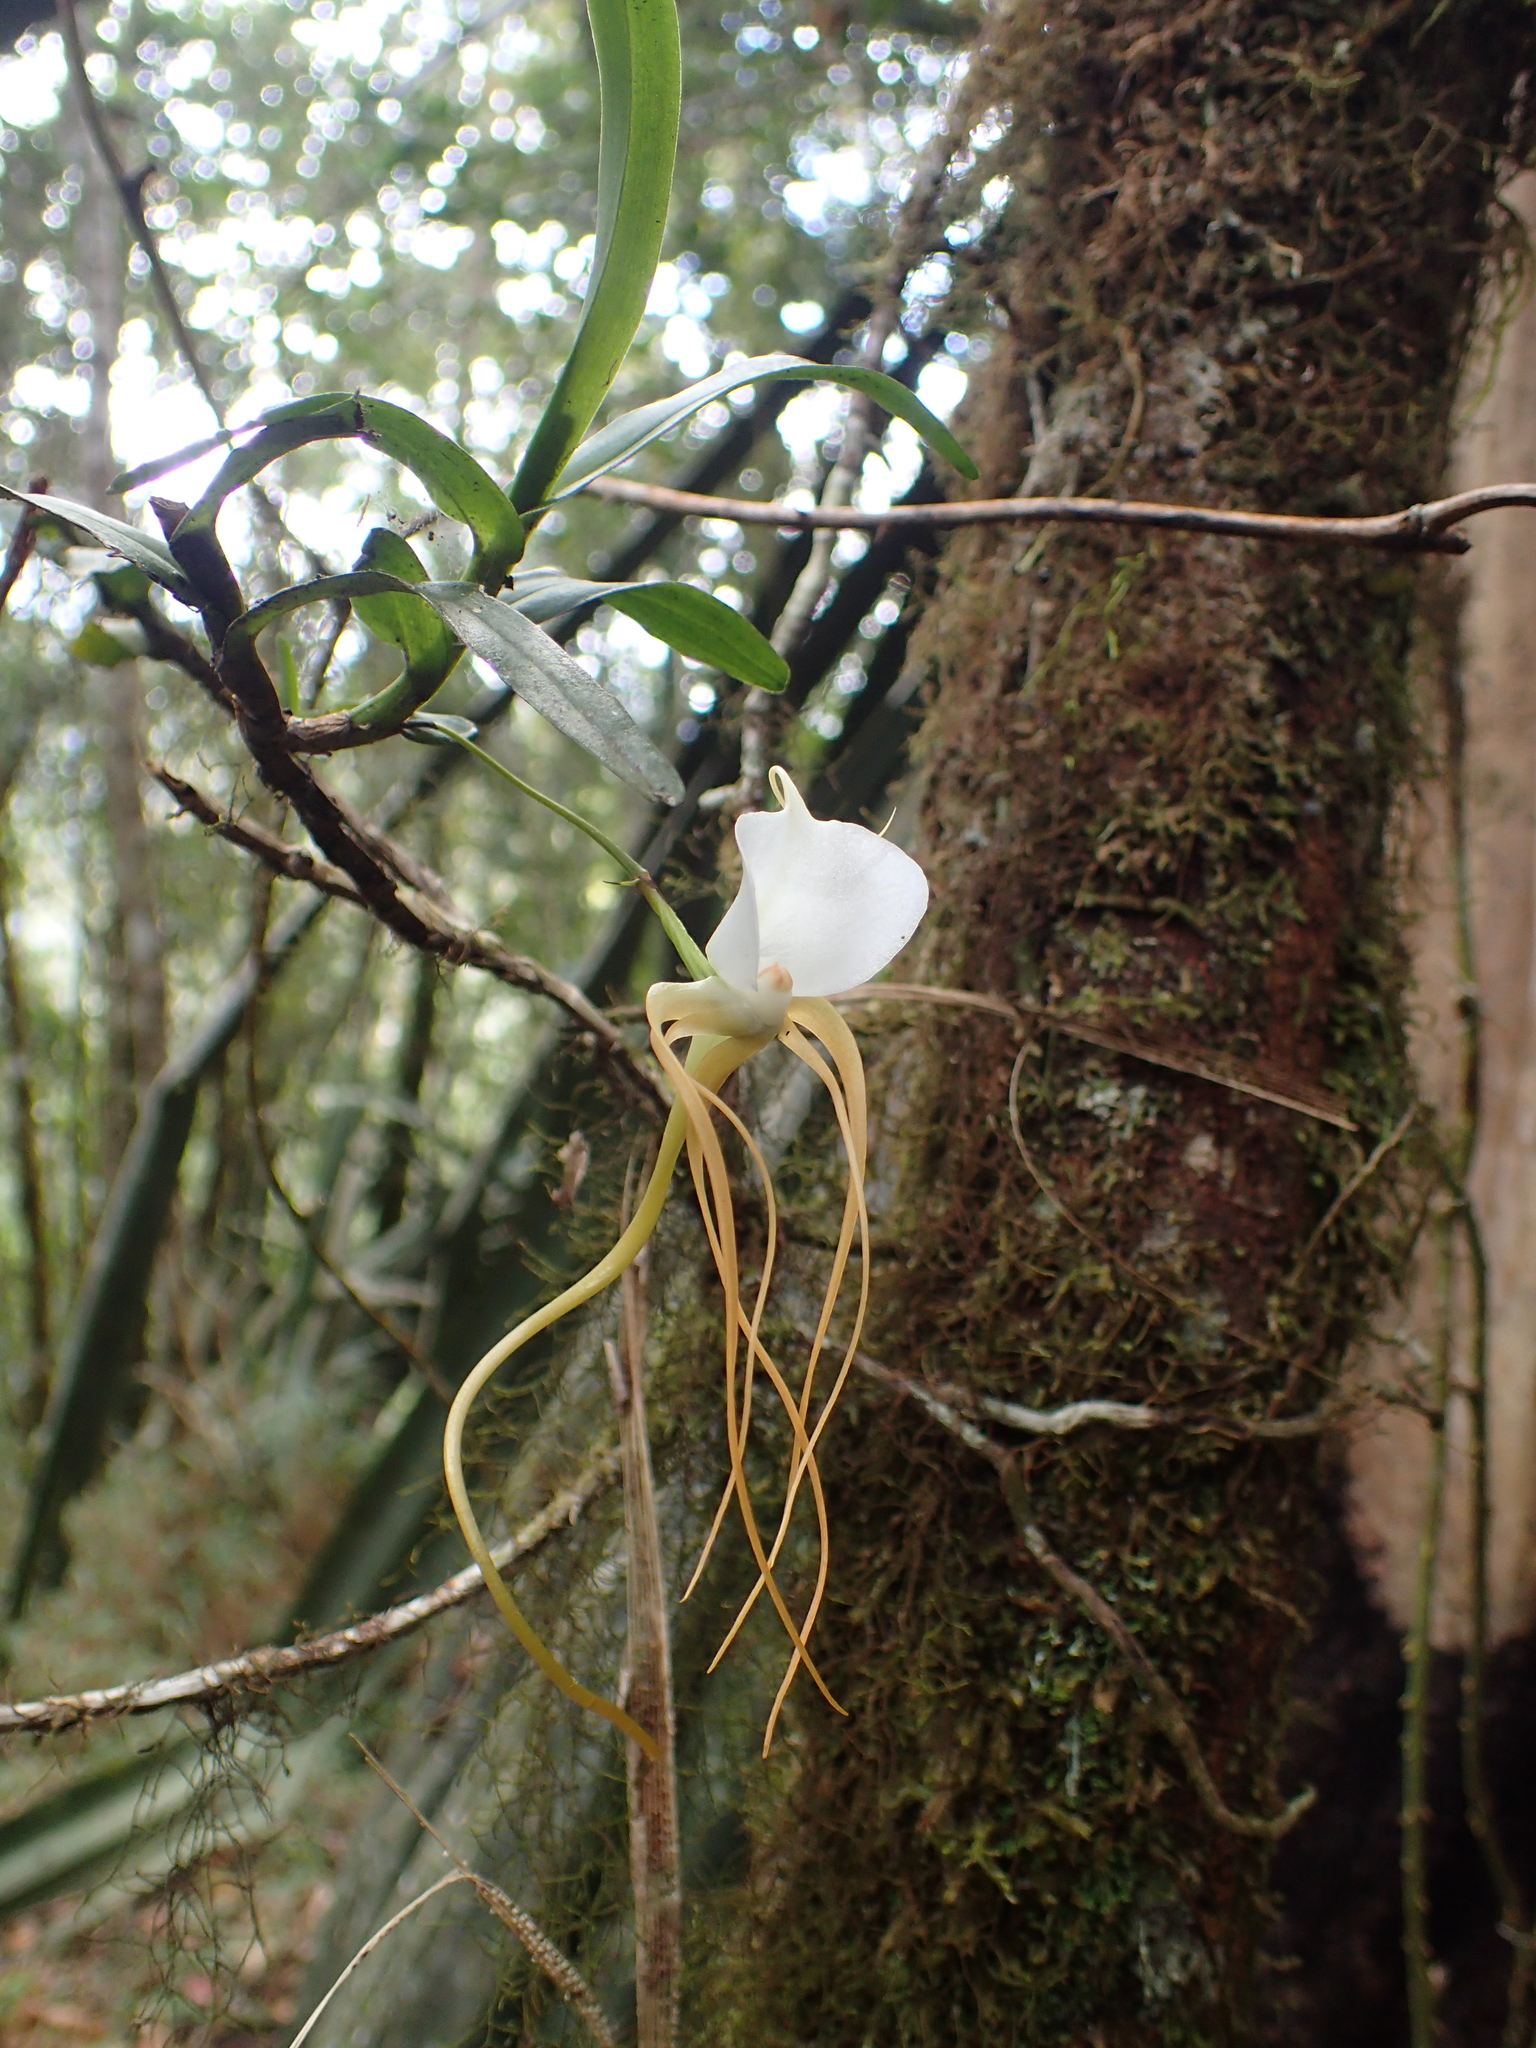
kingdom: Plantae
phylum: Tracheophyta
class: Liliopsida
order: Asparagales
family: Orchidaceae
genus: Angraecum
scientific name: Angraecum conchoglossum
